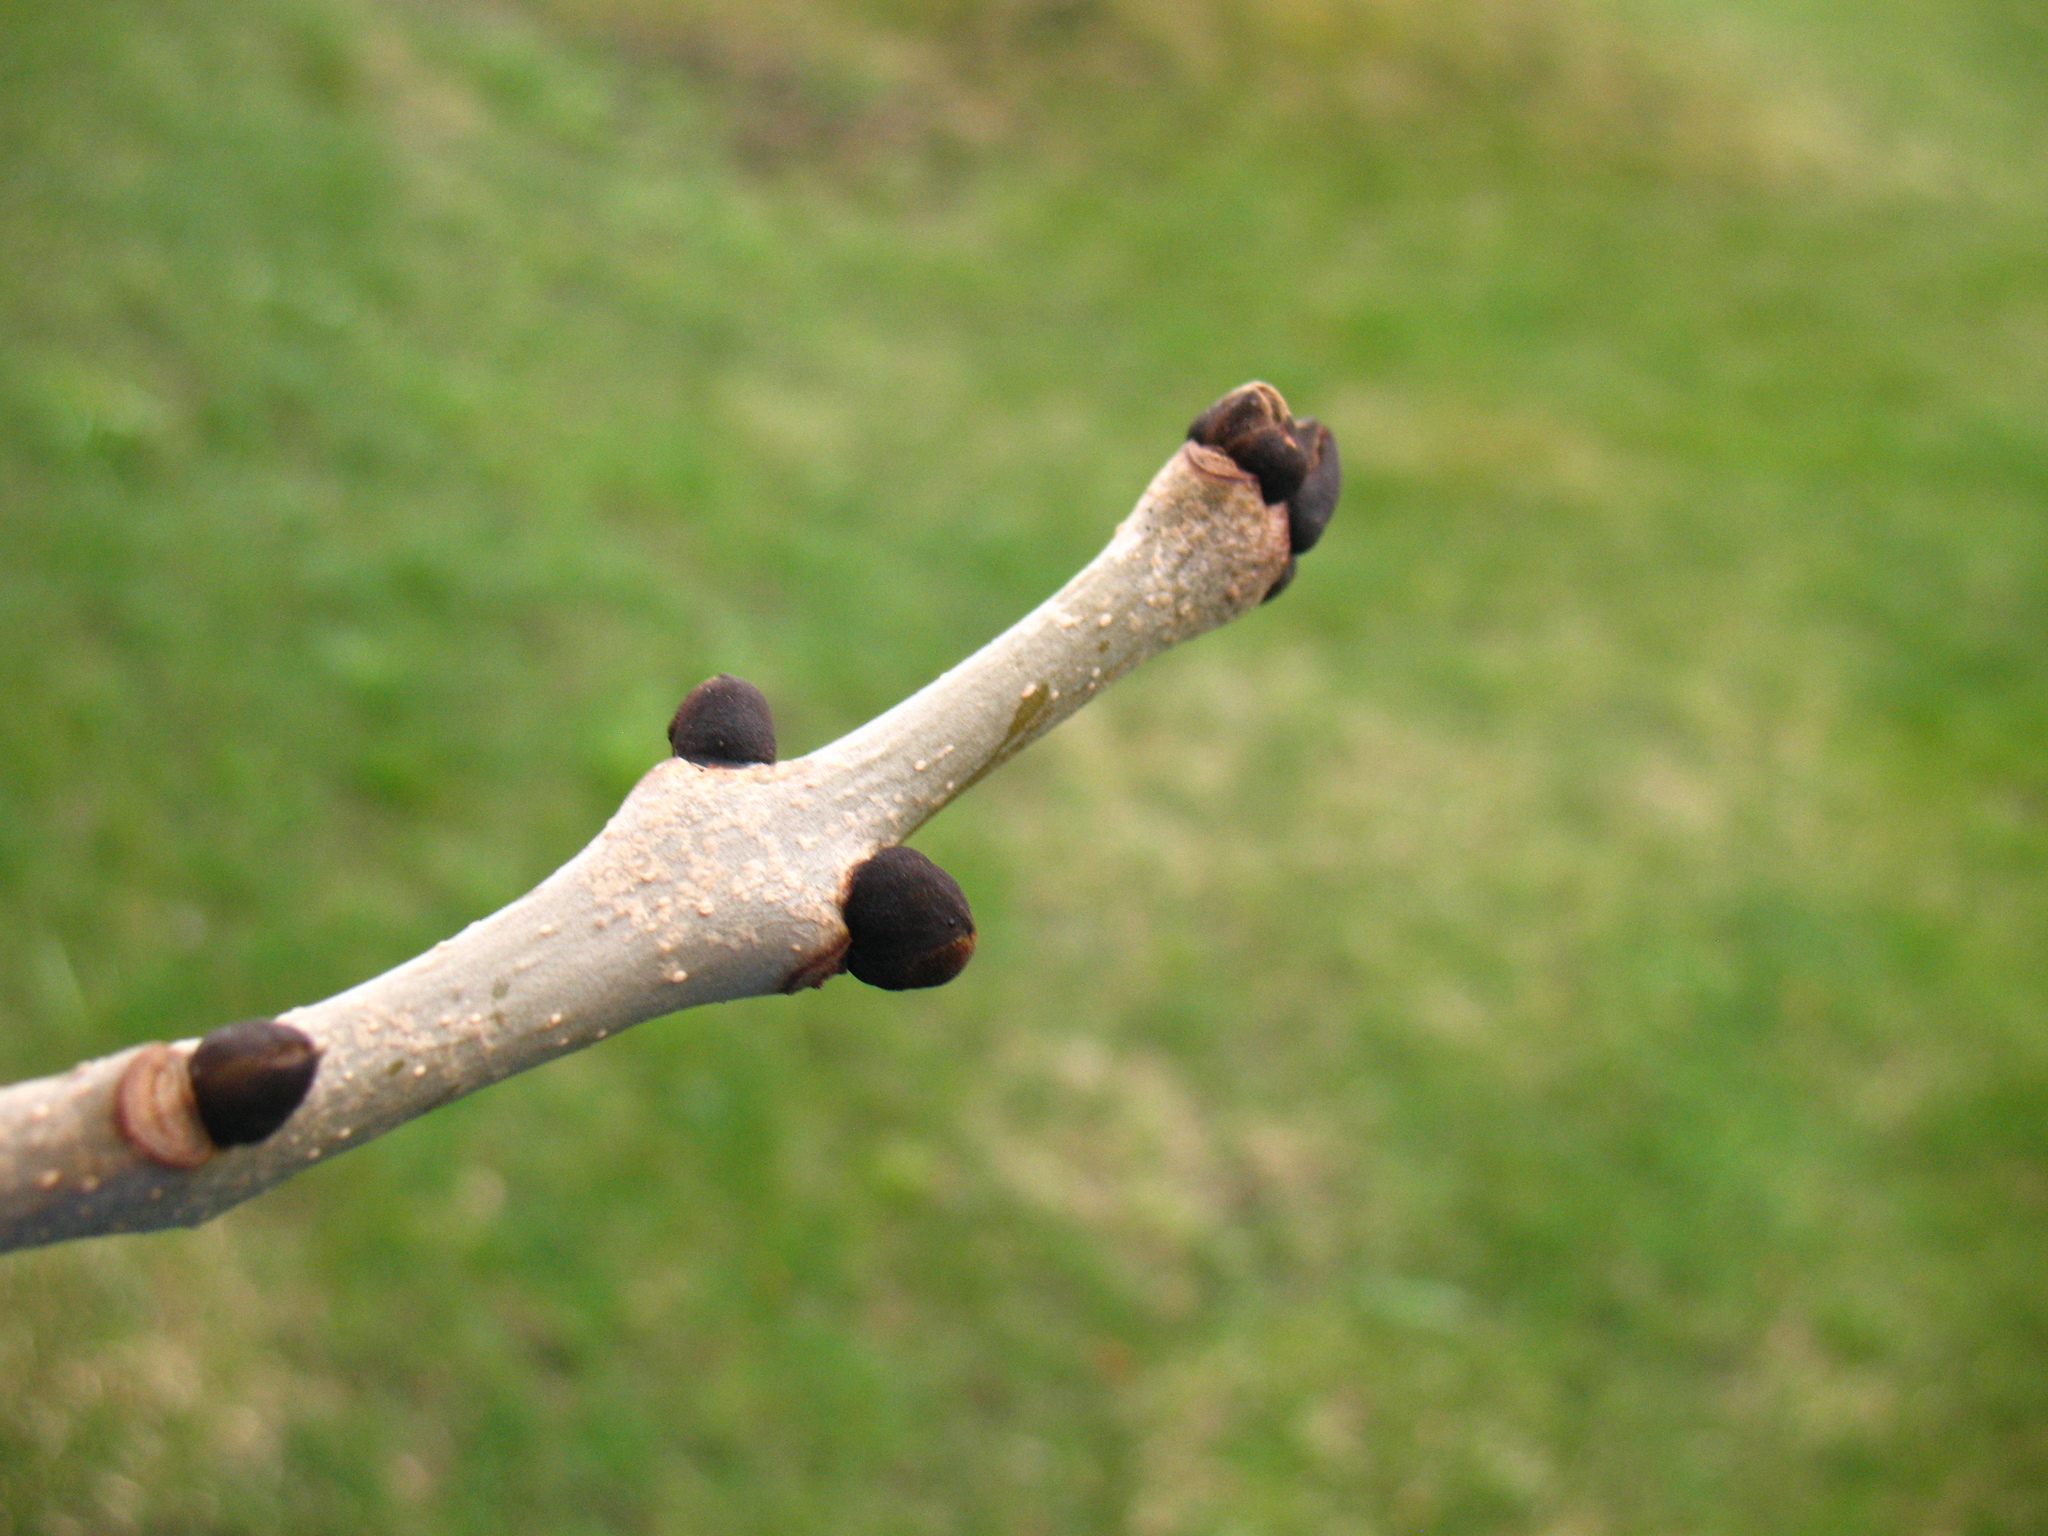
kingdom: Plantae
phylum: Tracheophyta
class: Magnoliopsida
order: Lamiales
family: Oleaceae
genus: Fraxinus
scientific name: Fraxinus excelsior
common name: European ash
